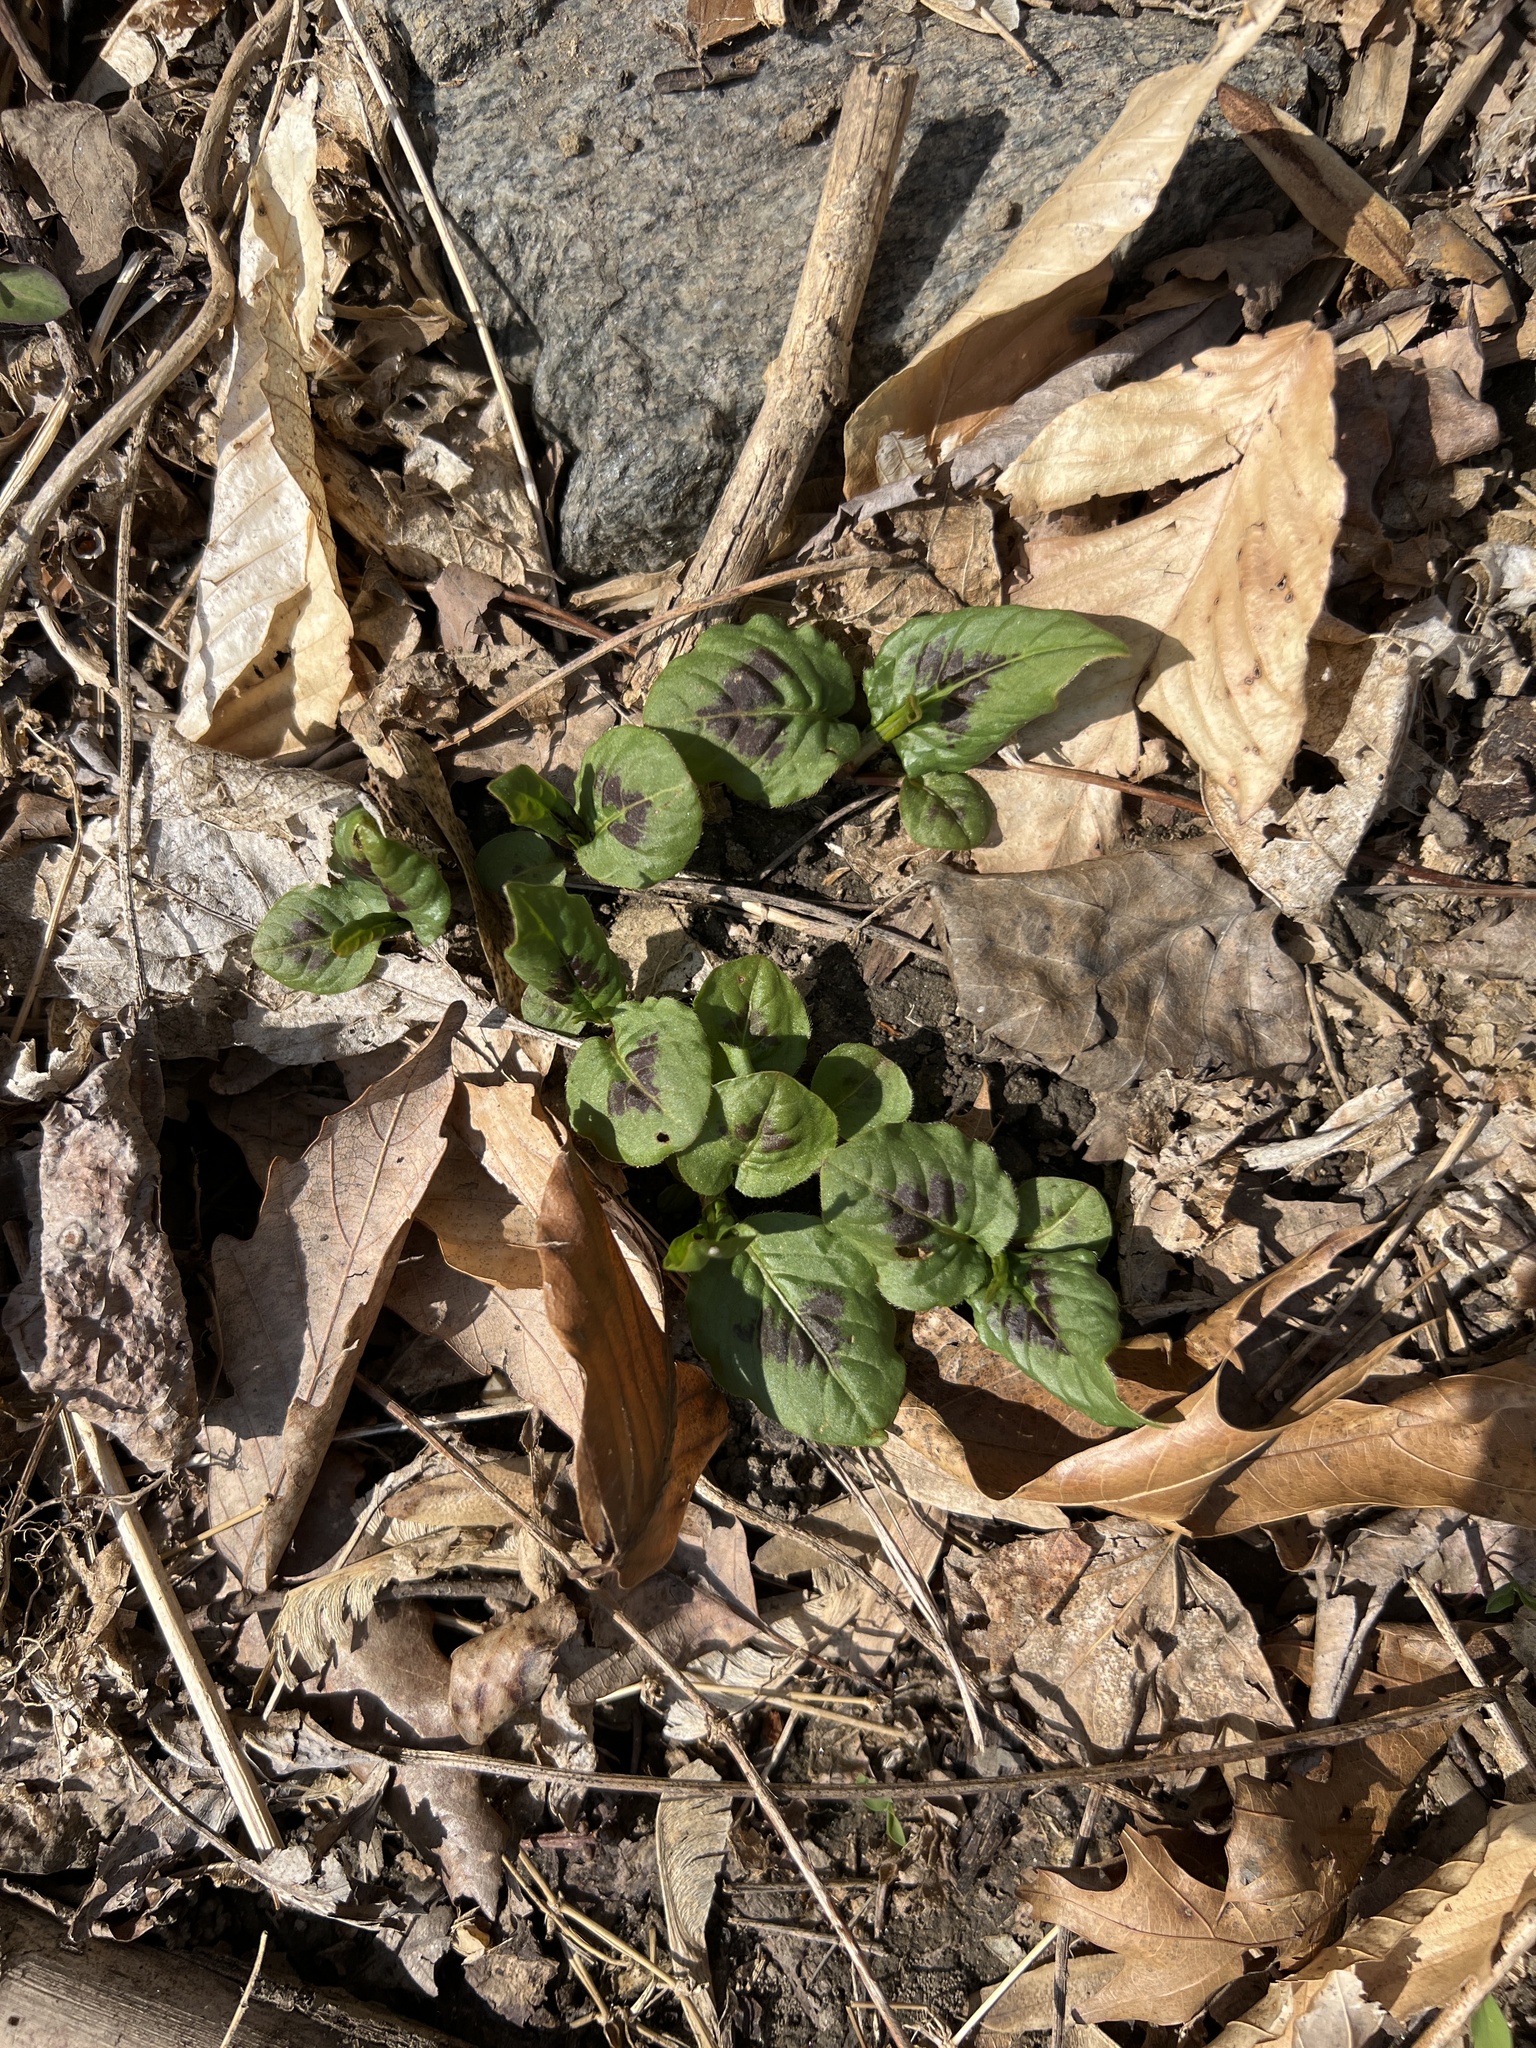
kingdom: Plantae
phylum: Tracheophyta
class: Magnoliopsida
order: Caryophyllales
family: Polygonaceae
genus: Persicaria
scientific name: Persicaria virginiana
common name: Jumpseed
